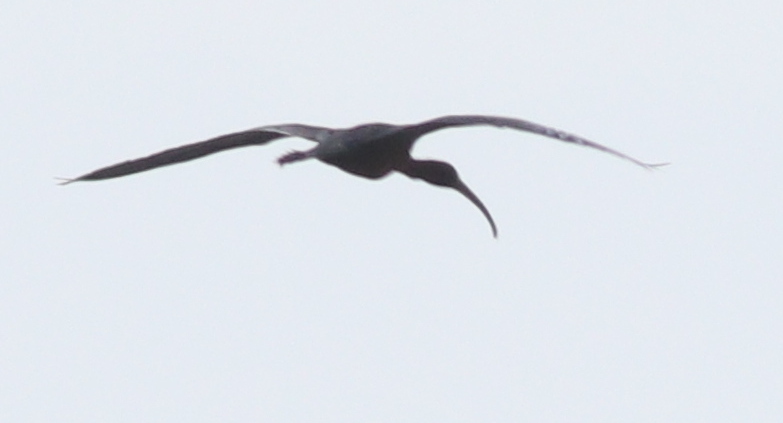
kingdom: Animalia
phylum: Chordata
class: Aves
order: Pelecaniformes
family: Threskiornithidae
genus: Plegadis
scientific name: Plegadis falcinellus
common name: Glossy ibis
